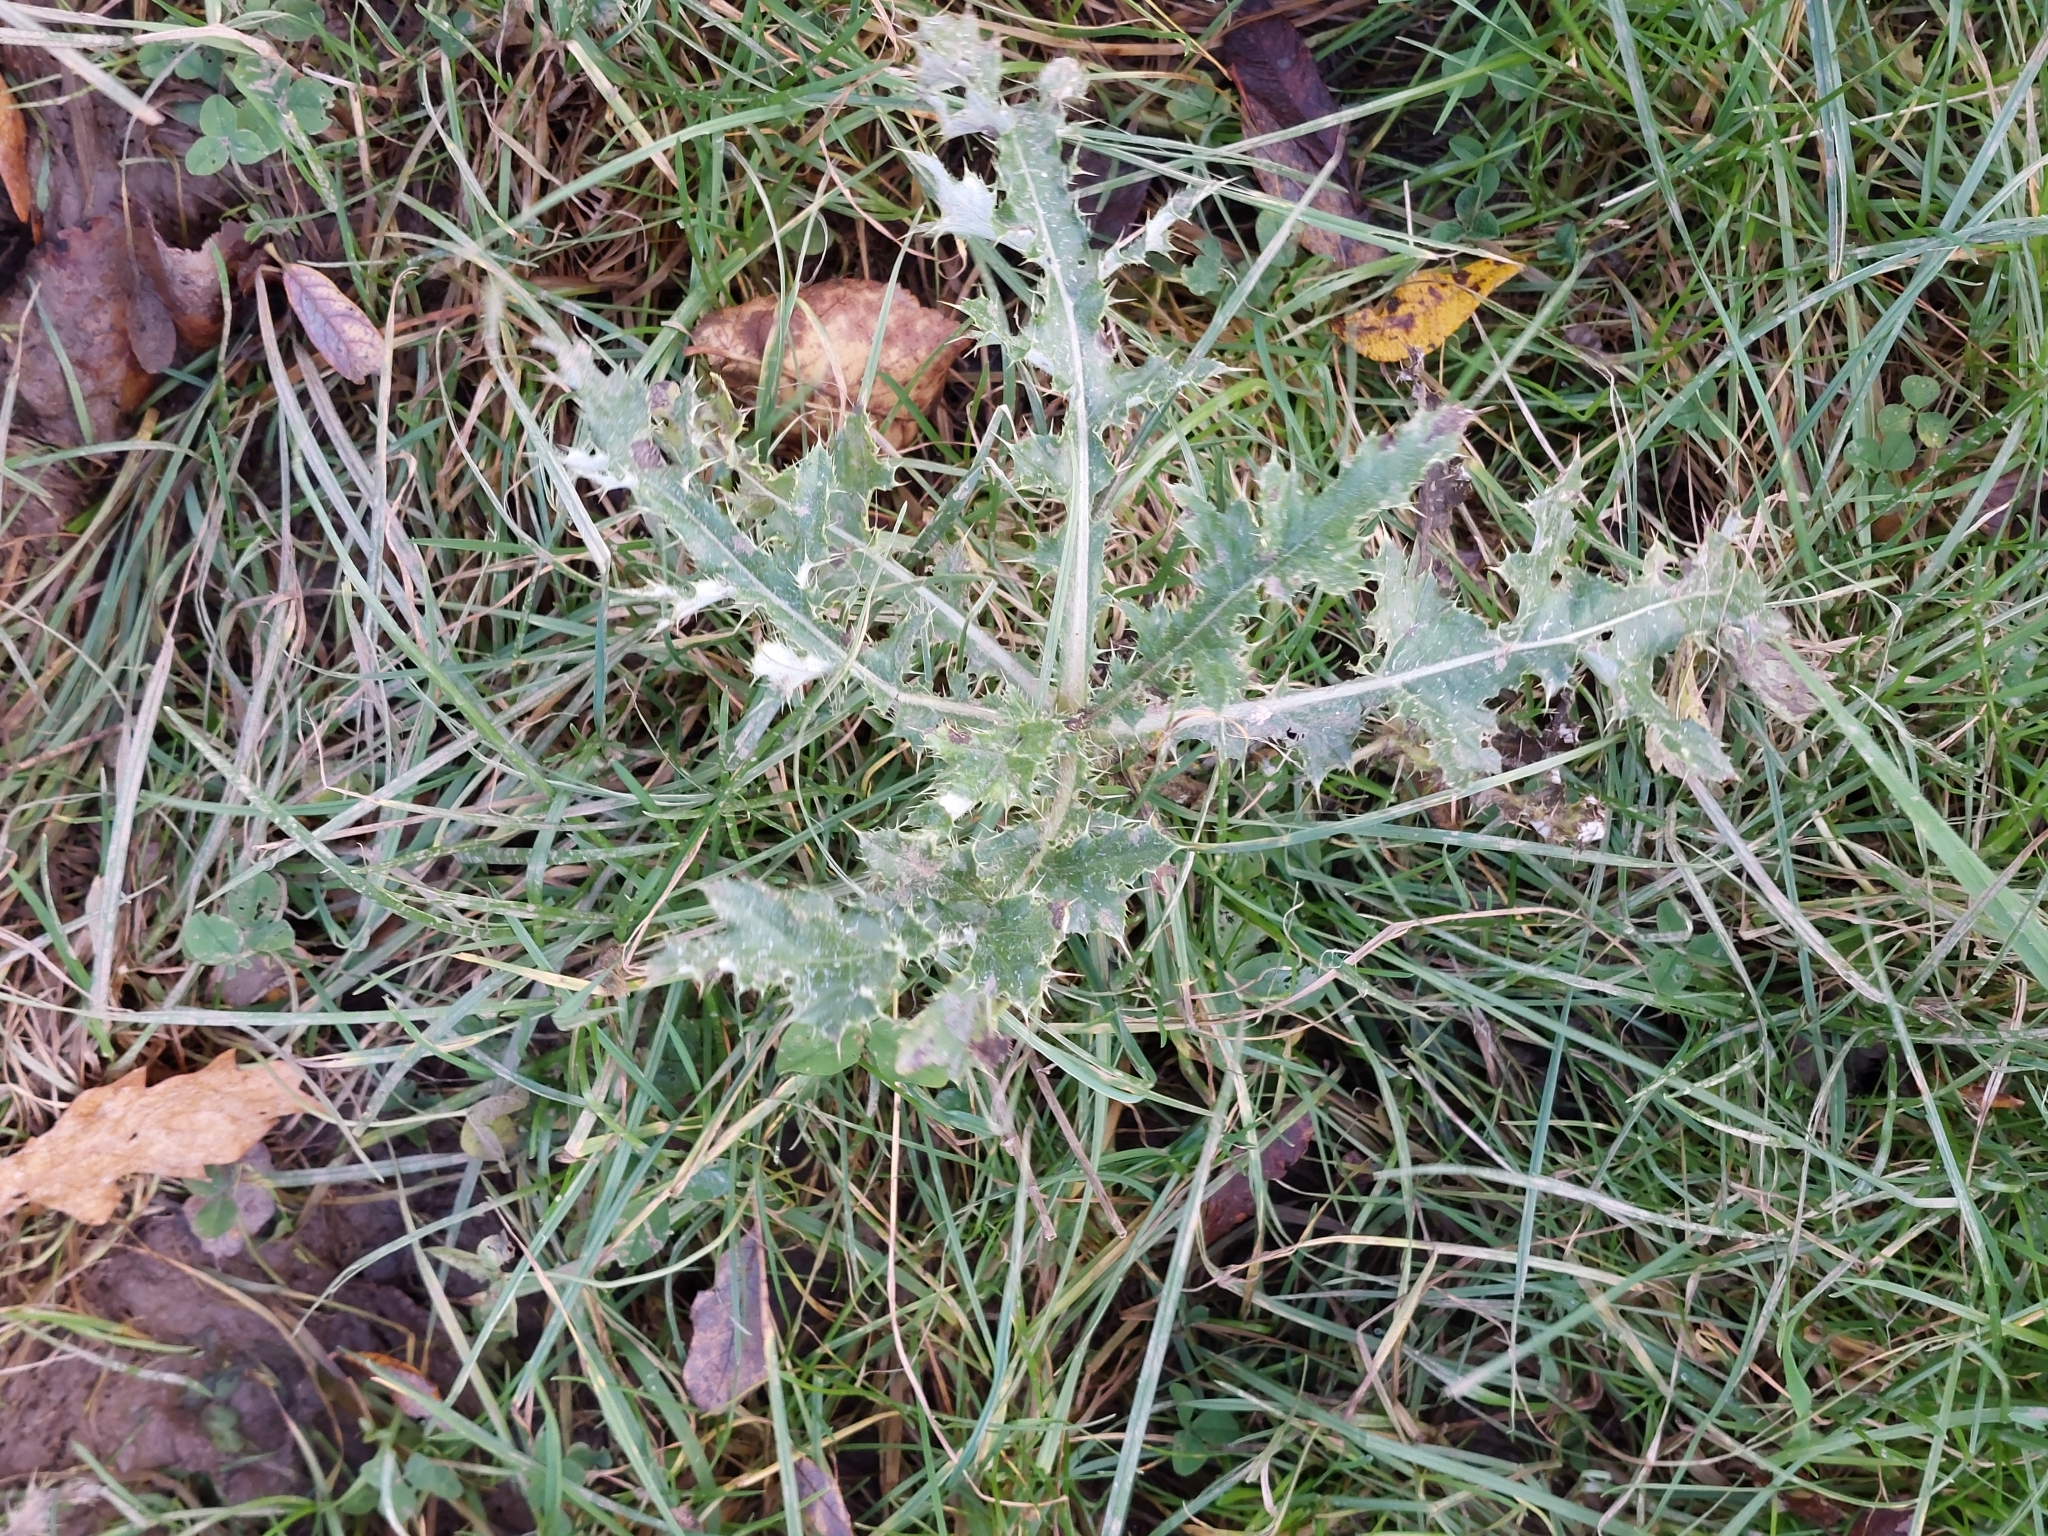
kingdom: Plantae
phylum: Tracheophyta
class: Magnoliopsida
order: Asterales
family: Asteraceae
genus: Cirsium
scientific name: Cirsium arvense
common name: Creeping thistle
